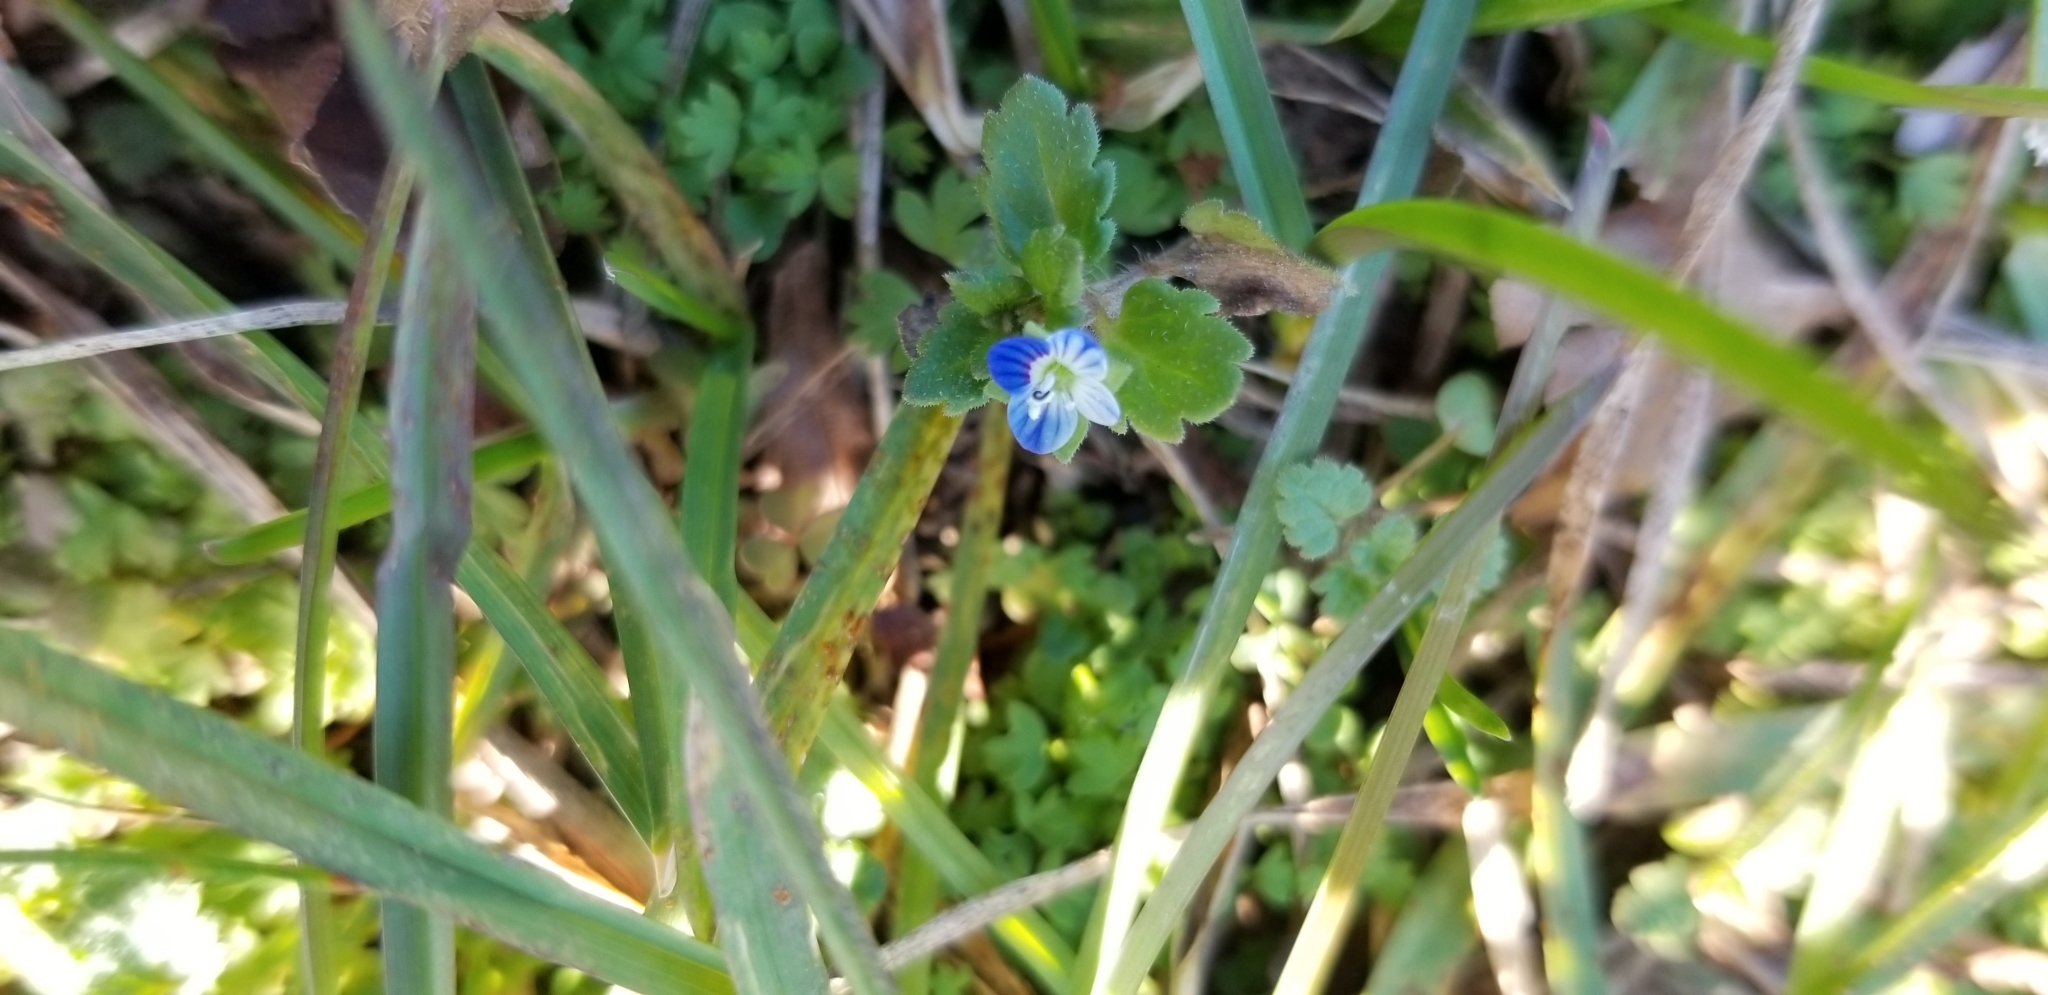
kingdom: Plantae
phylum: Tracheophyta
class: Magnoliopsida
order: Lamiales
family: Plantaginaceae
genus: Veronica
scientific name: Veronica polita
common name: Grey field-speedwell
